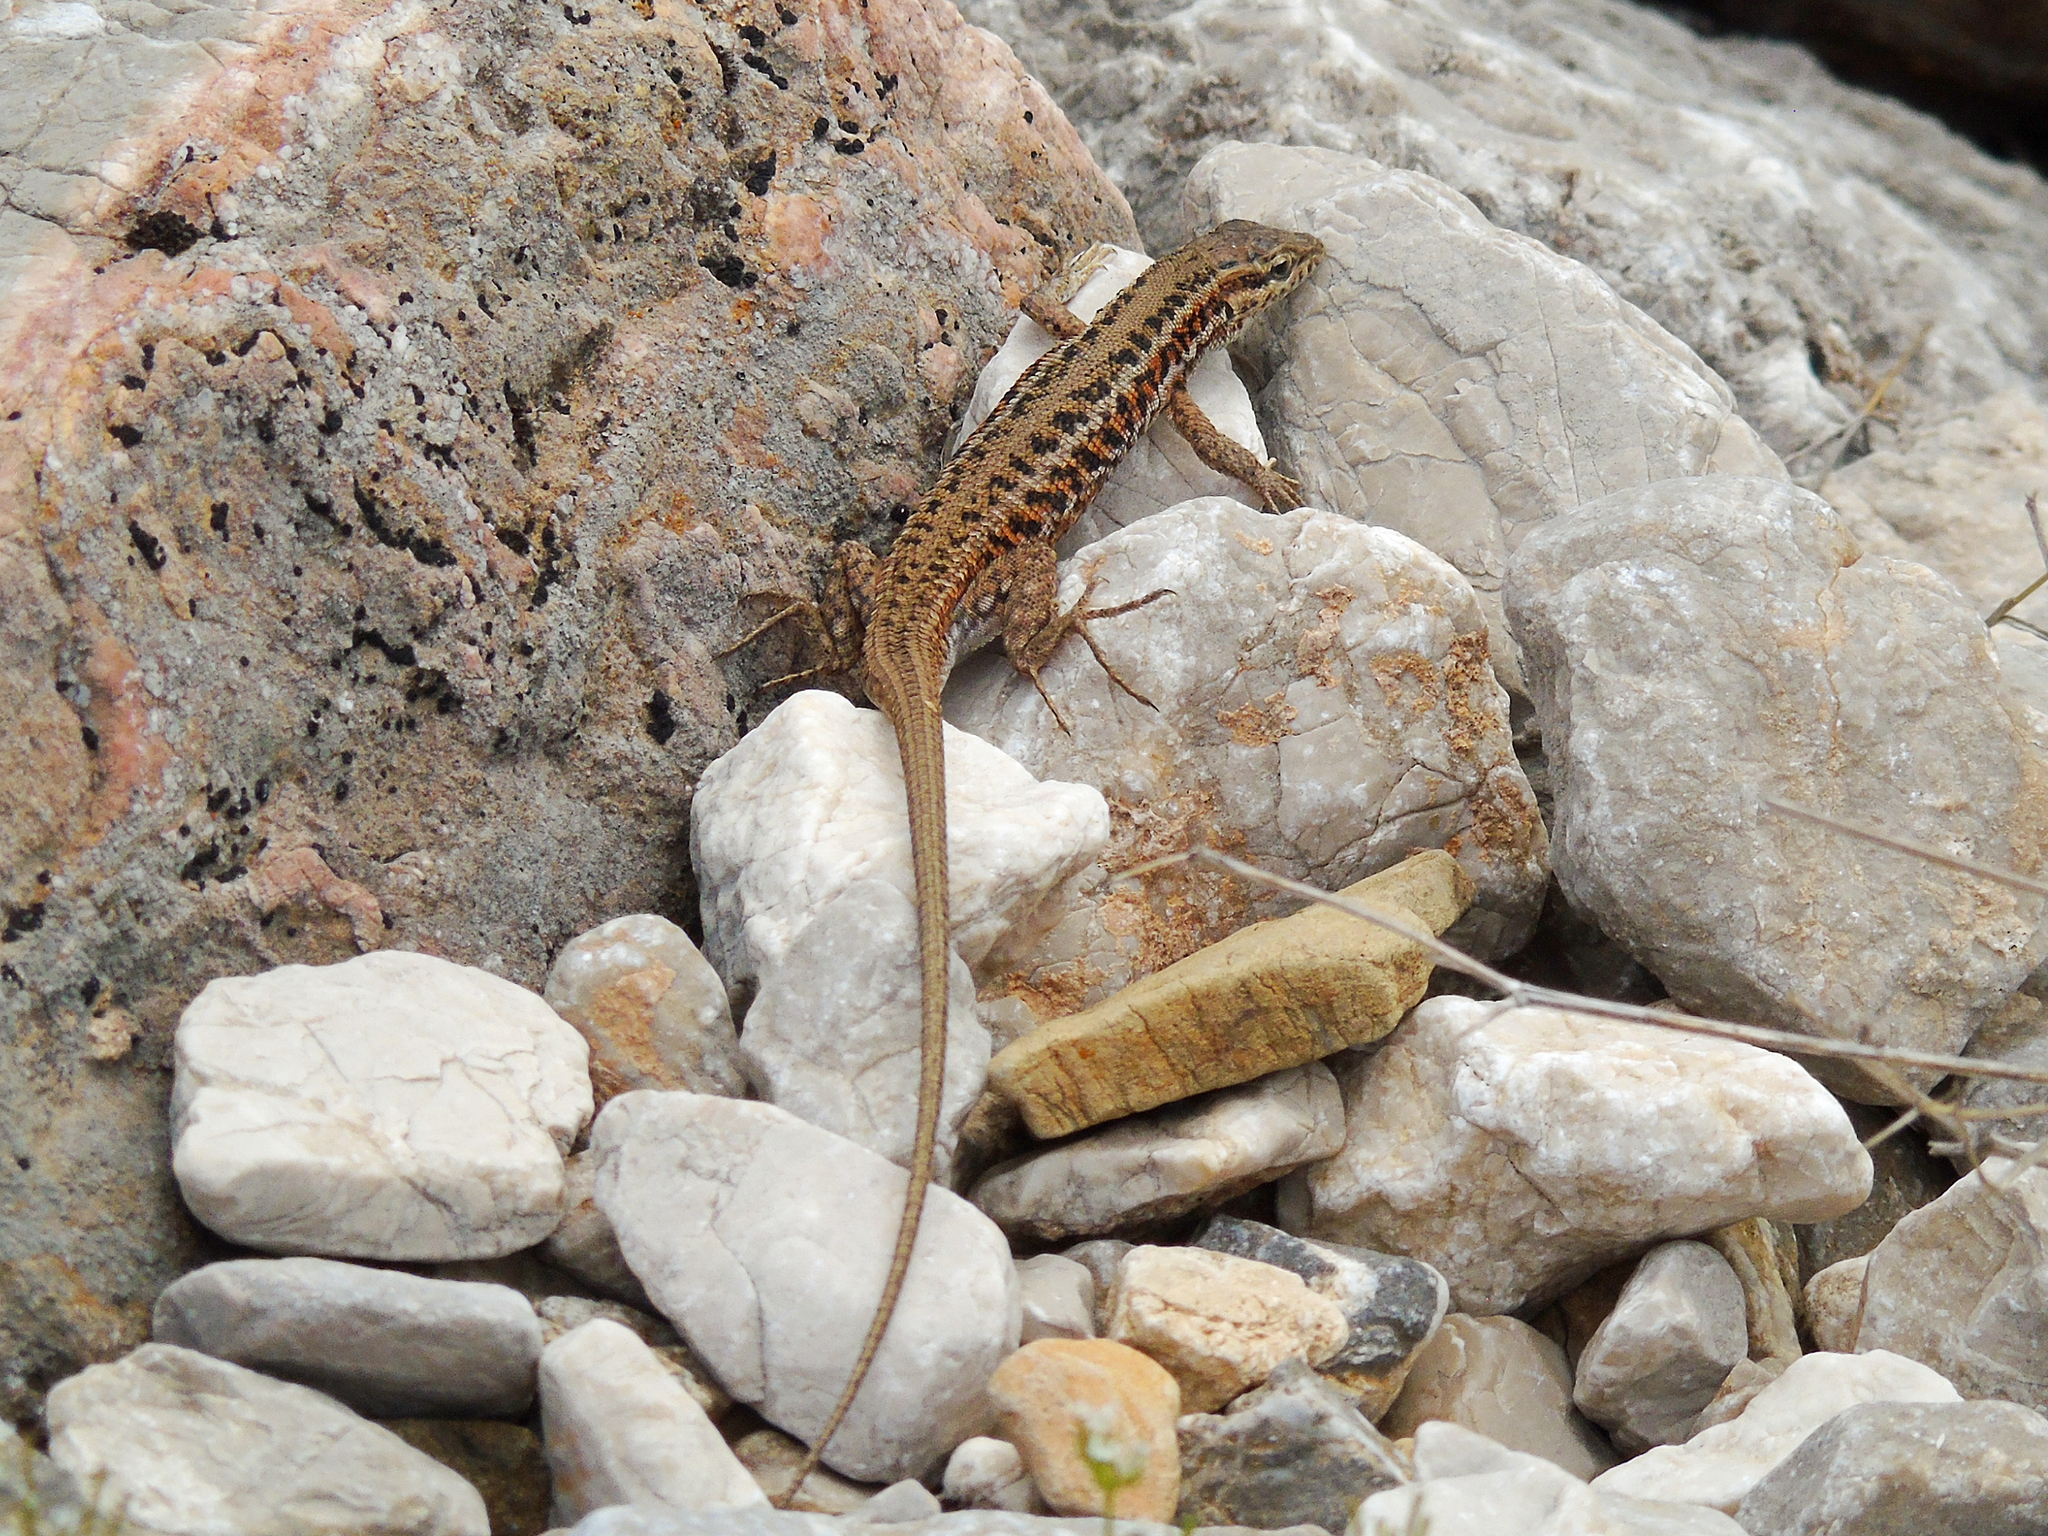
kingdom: Animalia
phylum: Chordata
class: Squamata
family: Lacertidae
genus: Ophisops
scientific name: Ophisops elegans
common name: Snake-eyed lizard
